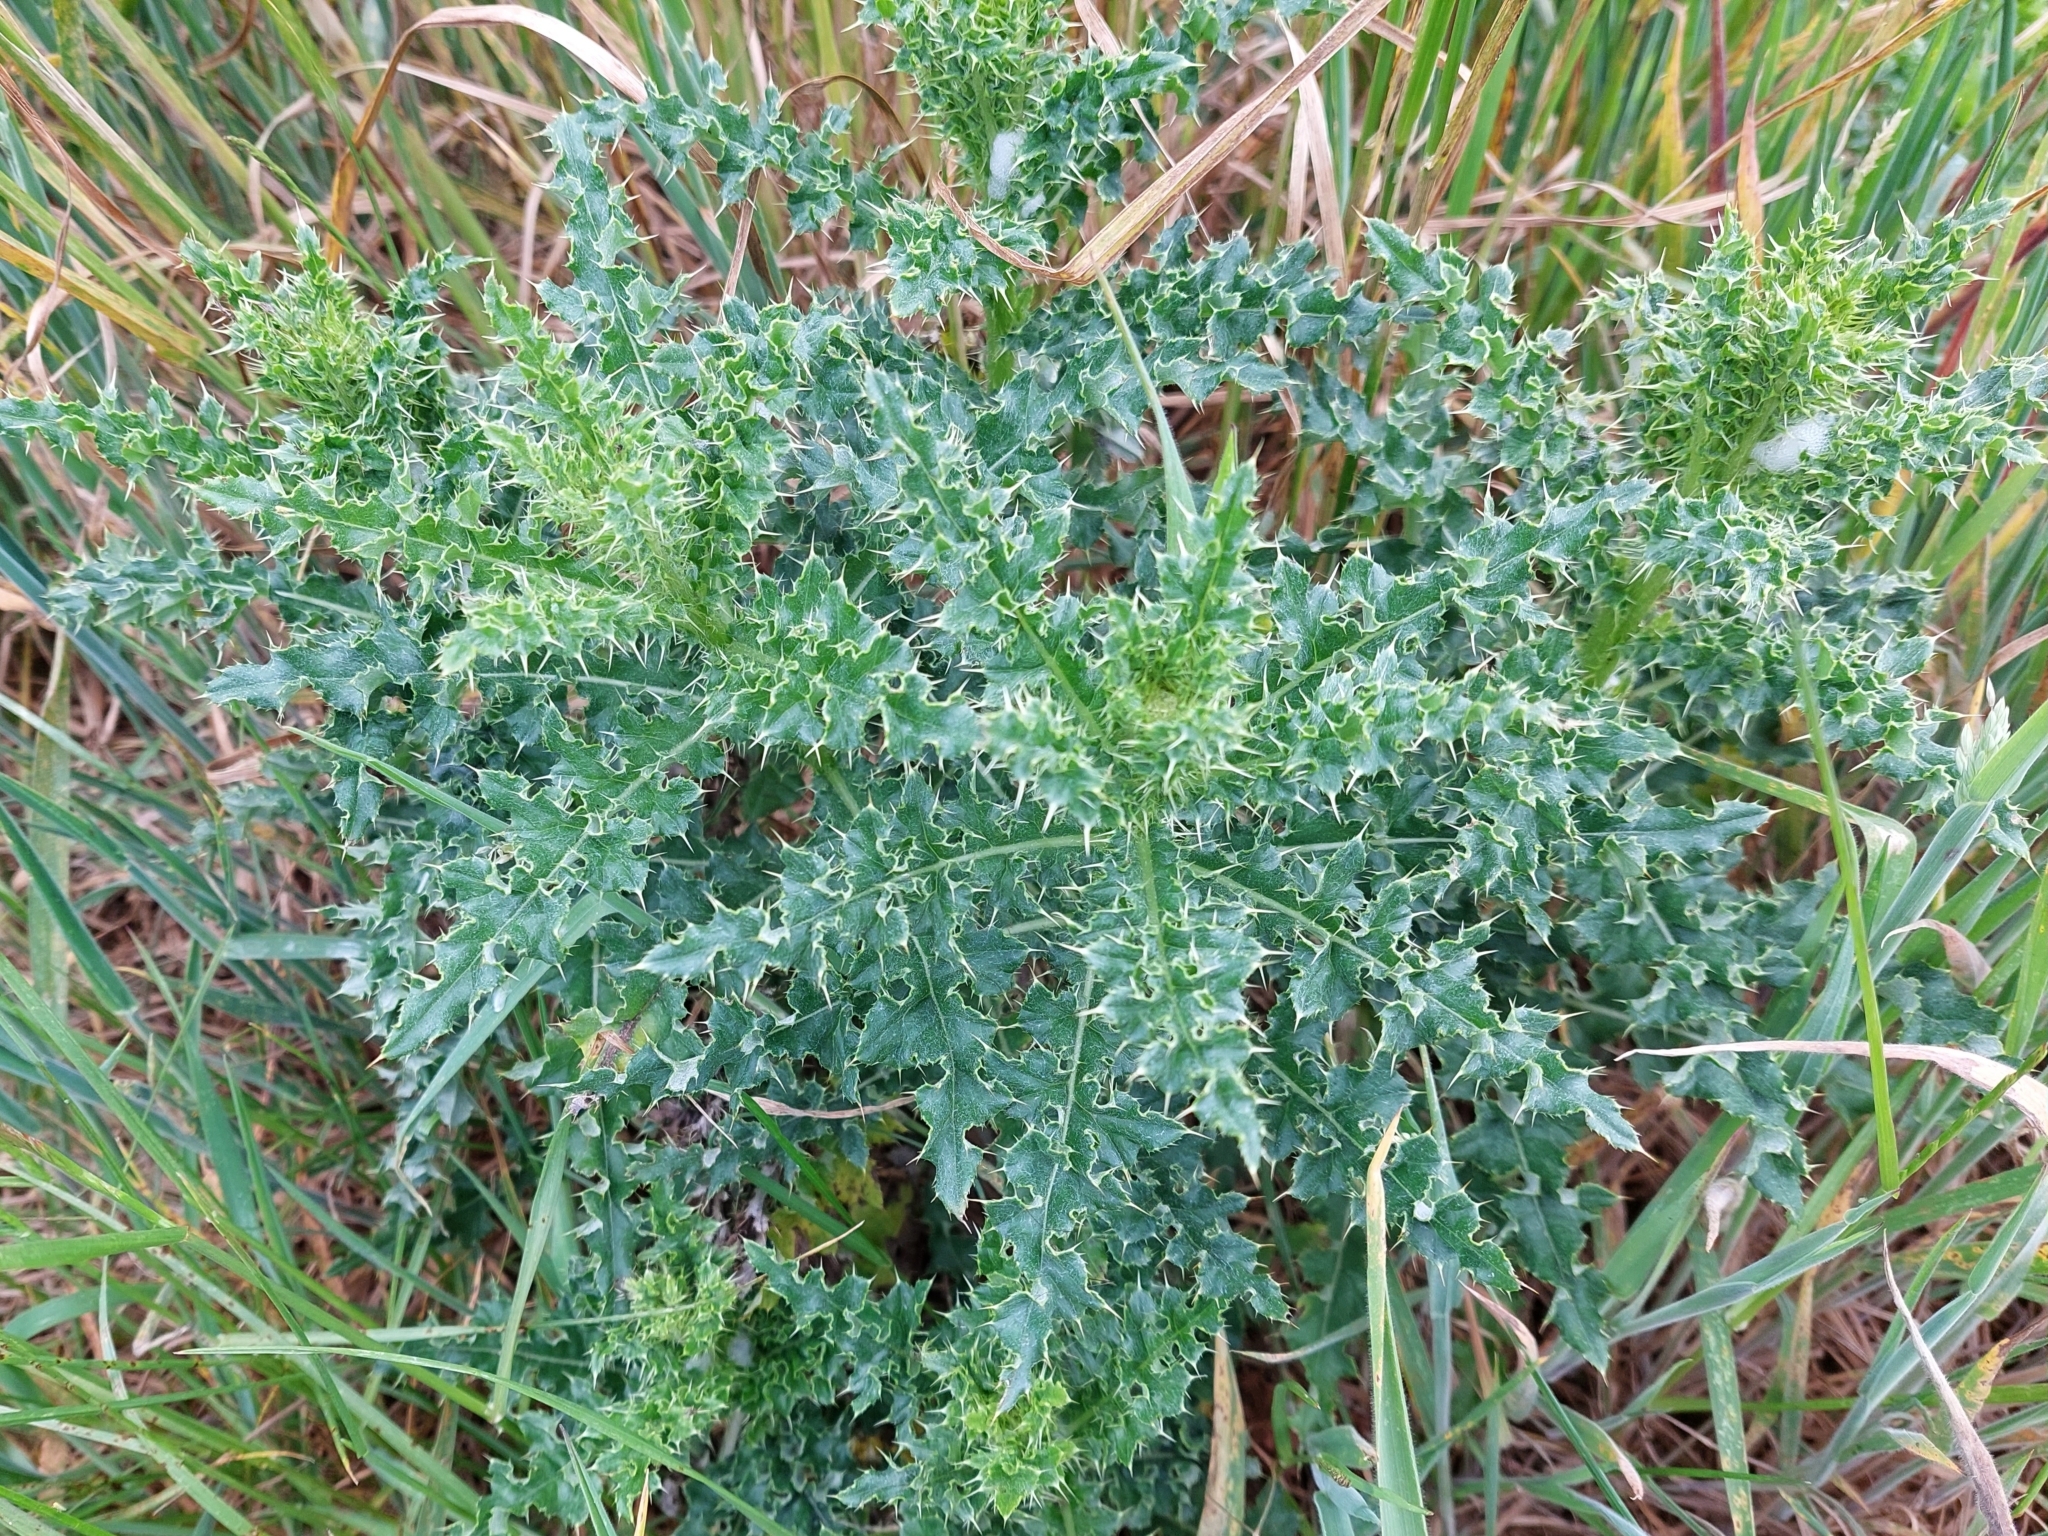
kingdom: Plantae
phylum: Tracheophyta
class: Magnoliopsida
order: Asterales
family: Asteraceae
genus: Cirsium
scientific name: Cirsium arvense
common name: Creeping thistle
